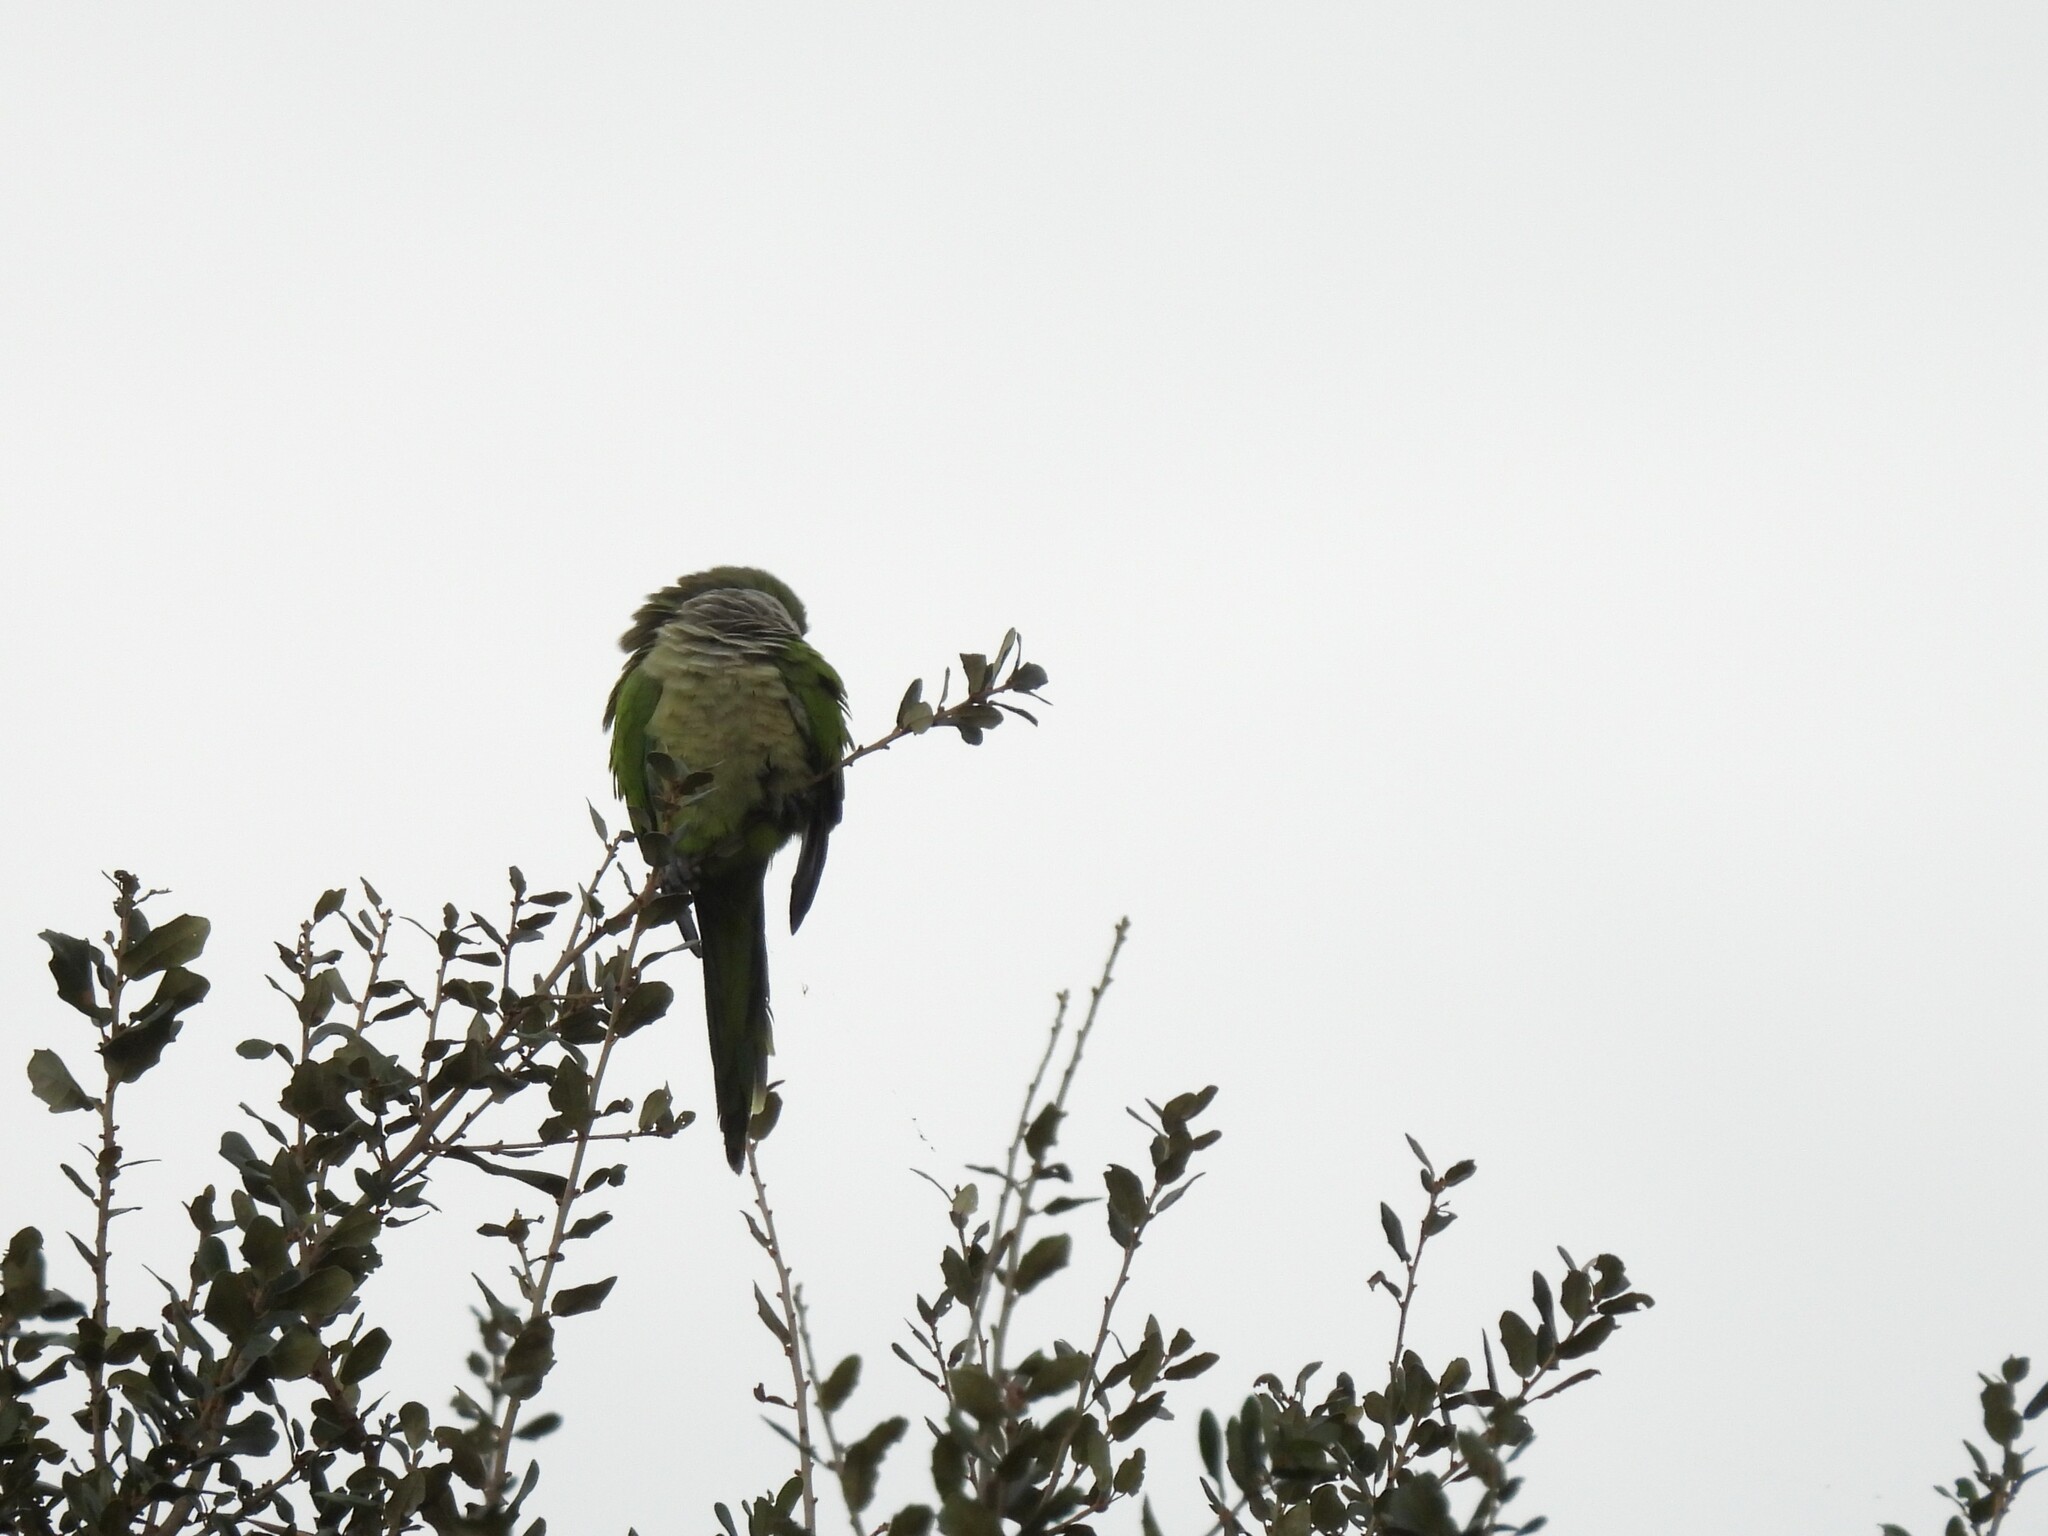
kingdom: Animalia
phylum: Chordata
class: Aves
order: Psittaciformes
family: Psittacidae
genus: Myiopsitta
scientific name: Myiopsitta monachus
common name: Monk parakeet
